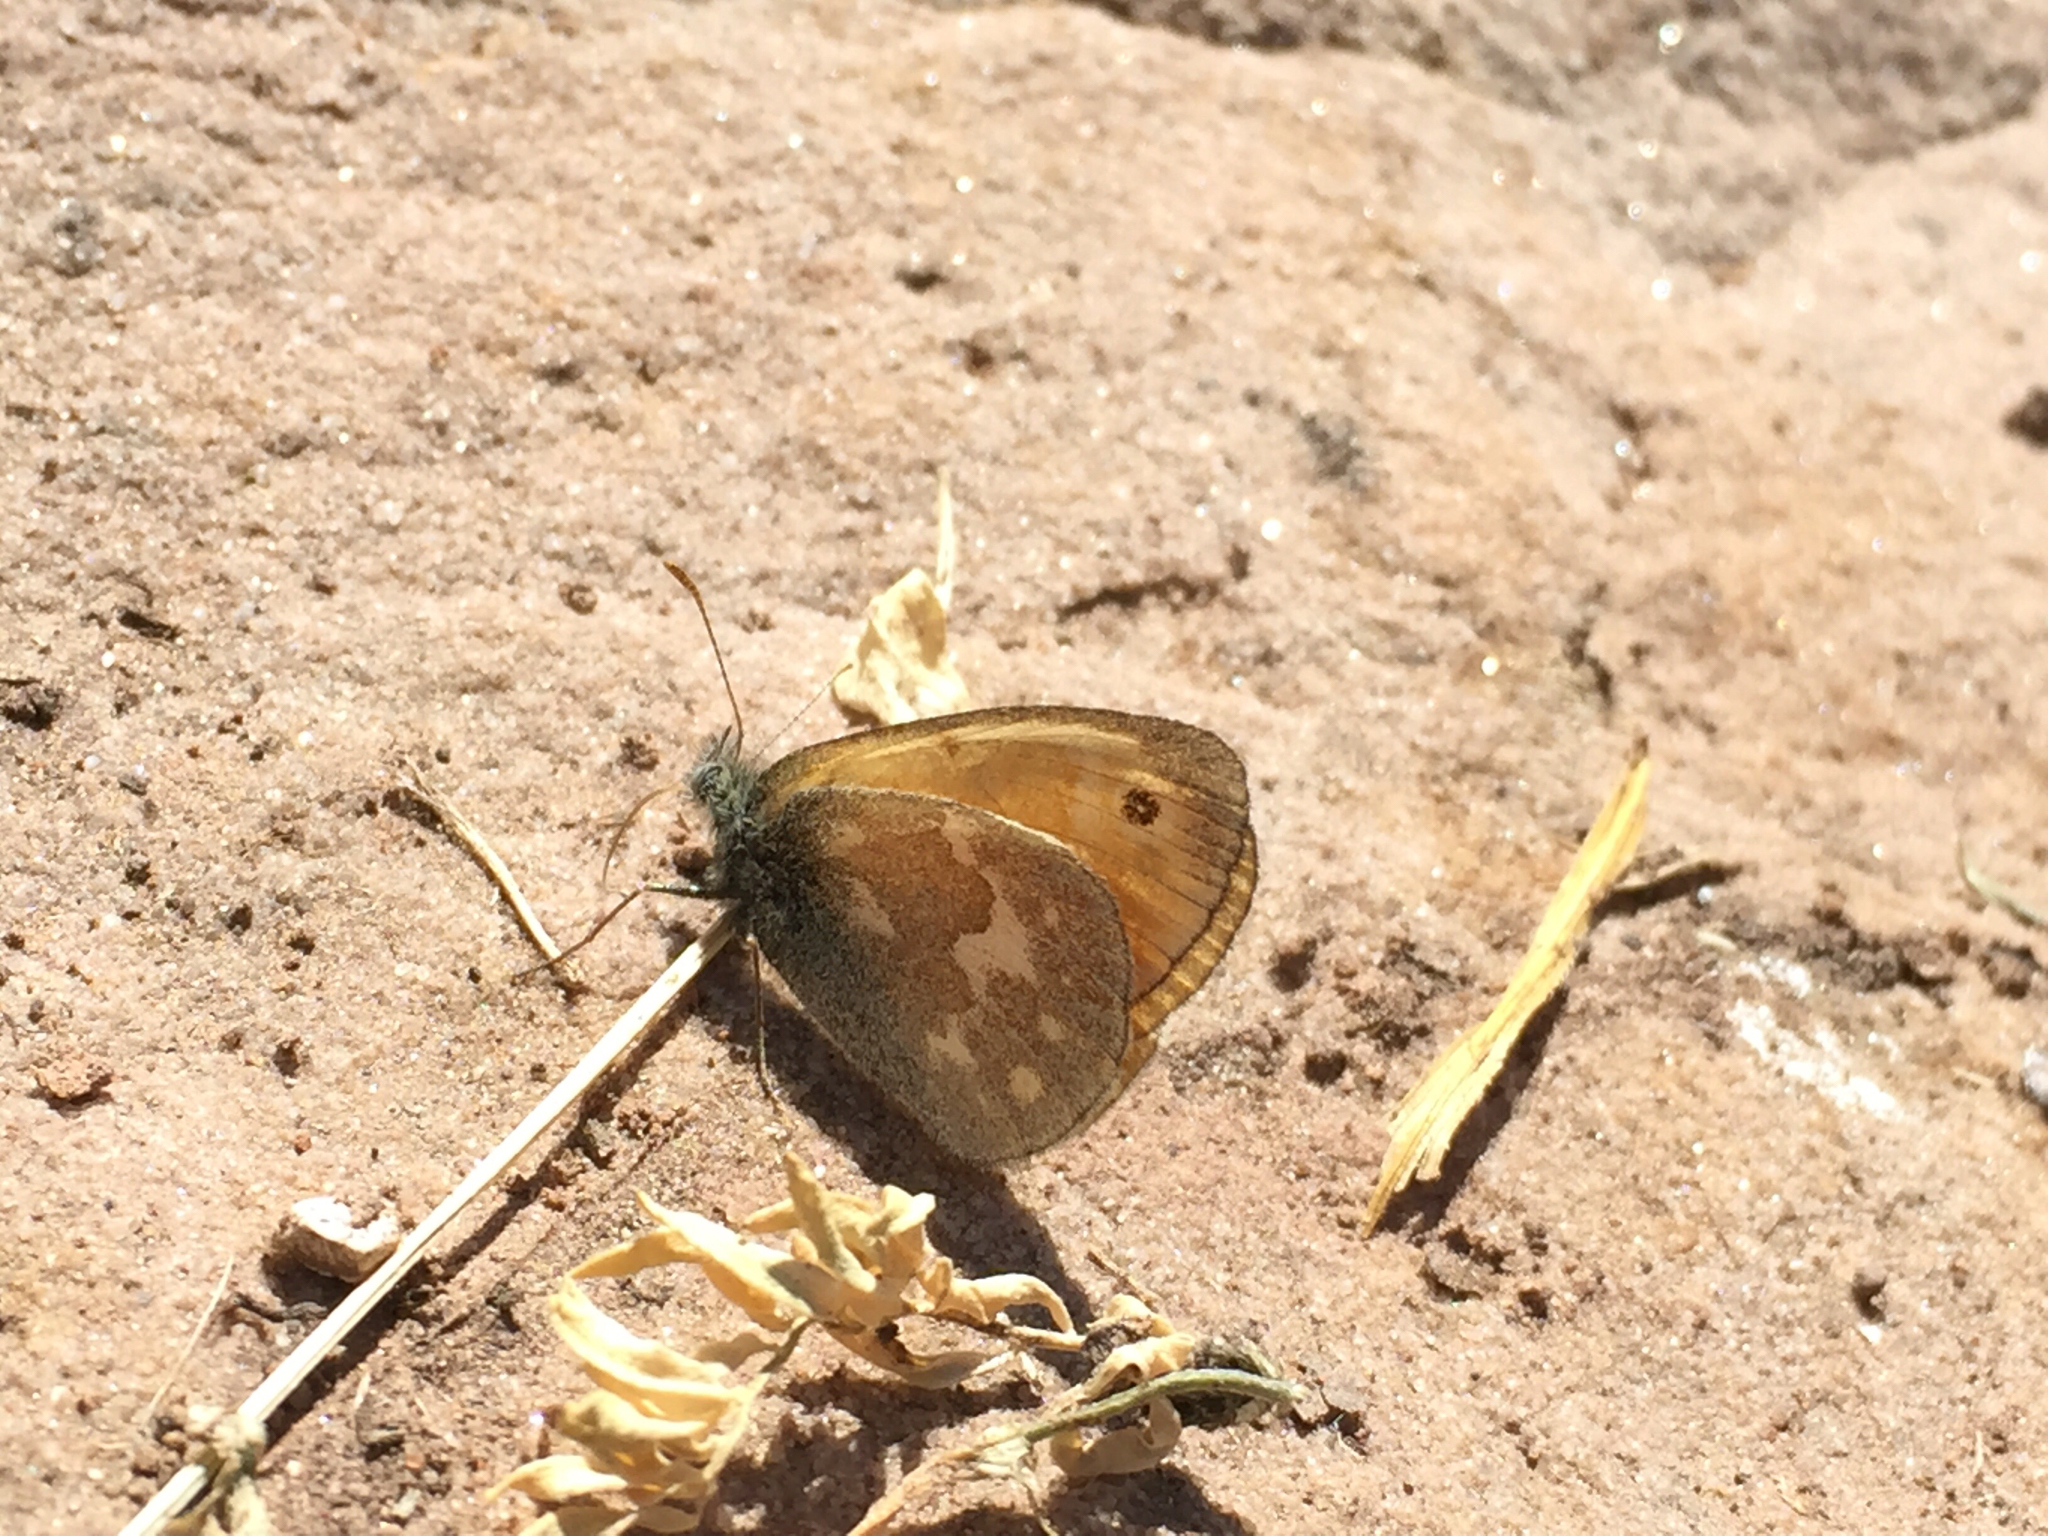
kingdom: Animalia
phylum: Arthropoda
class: Insecta
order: Lepidoptera
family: Nymphalidae
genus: Coenonympha
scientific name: Coenonympha california
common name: Common ringlet
